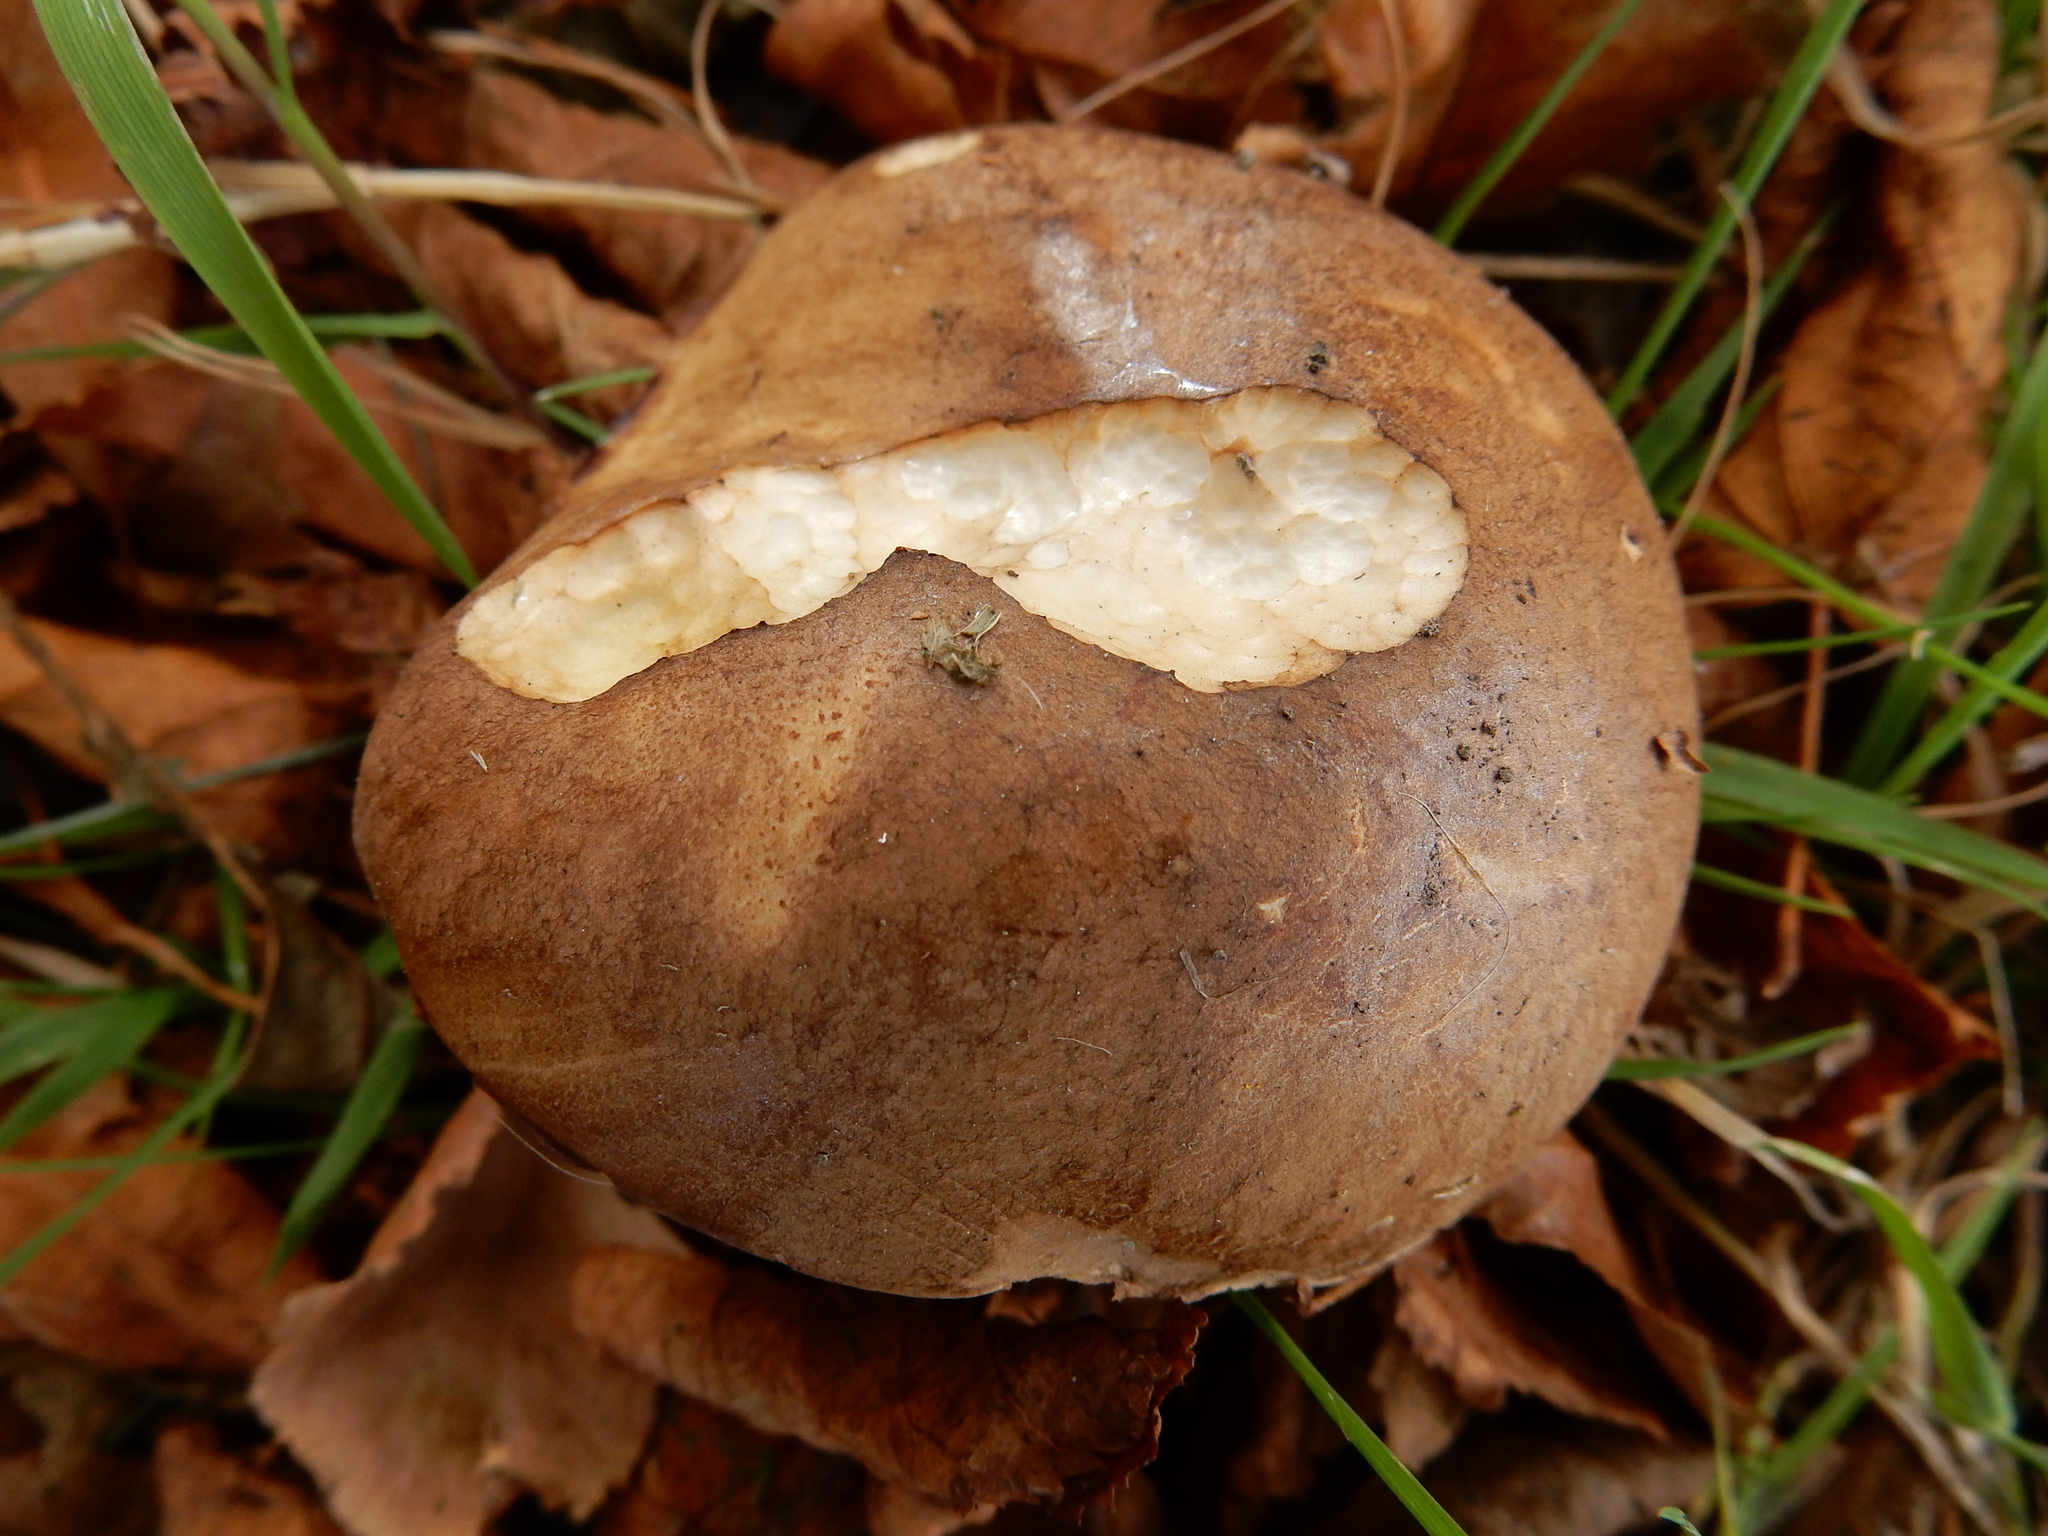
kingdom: Fungi
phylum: Basidiomycota
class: Agaricomycetes
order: Boletales
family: Boletaceae
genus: Leccinum
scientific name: Leccinum scabrum
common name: Blushing bolete
